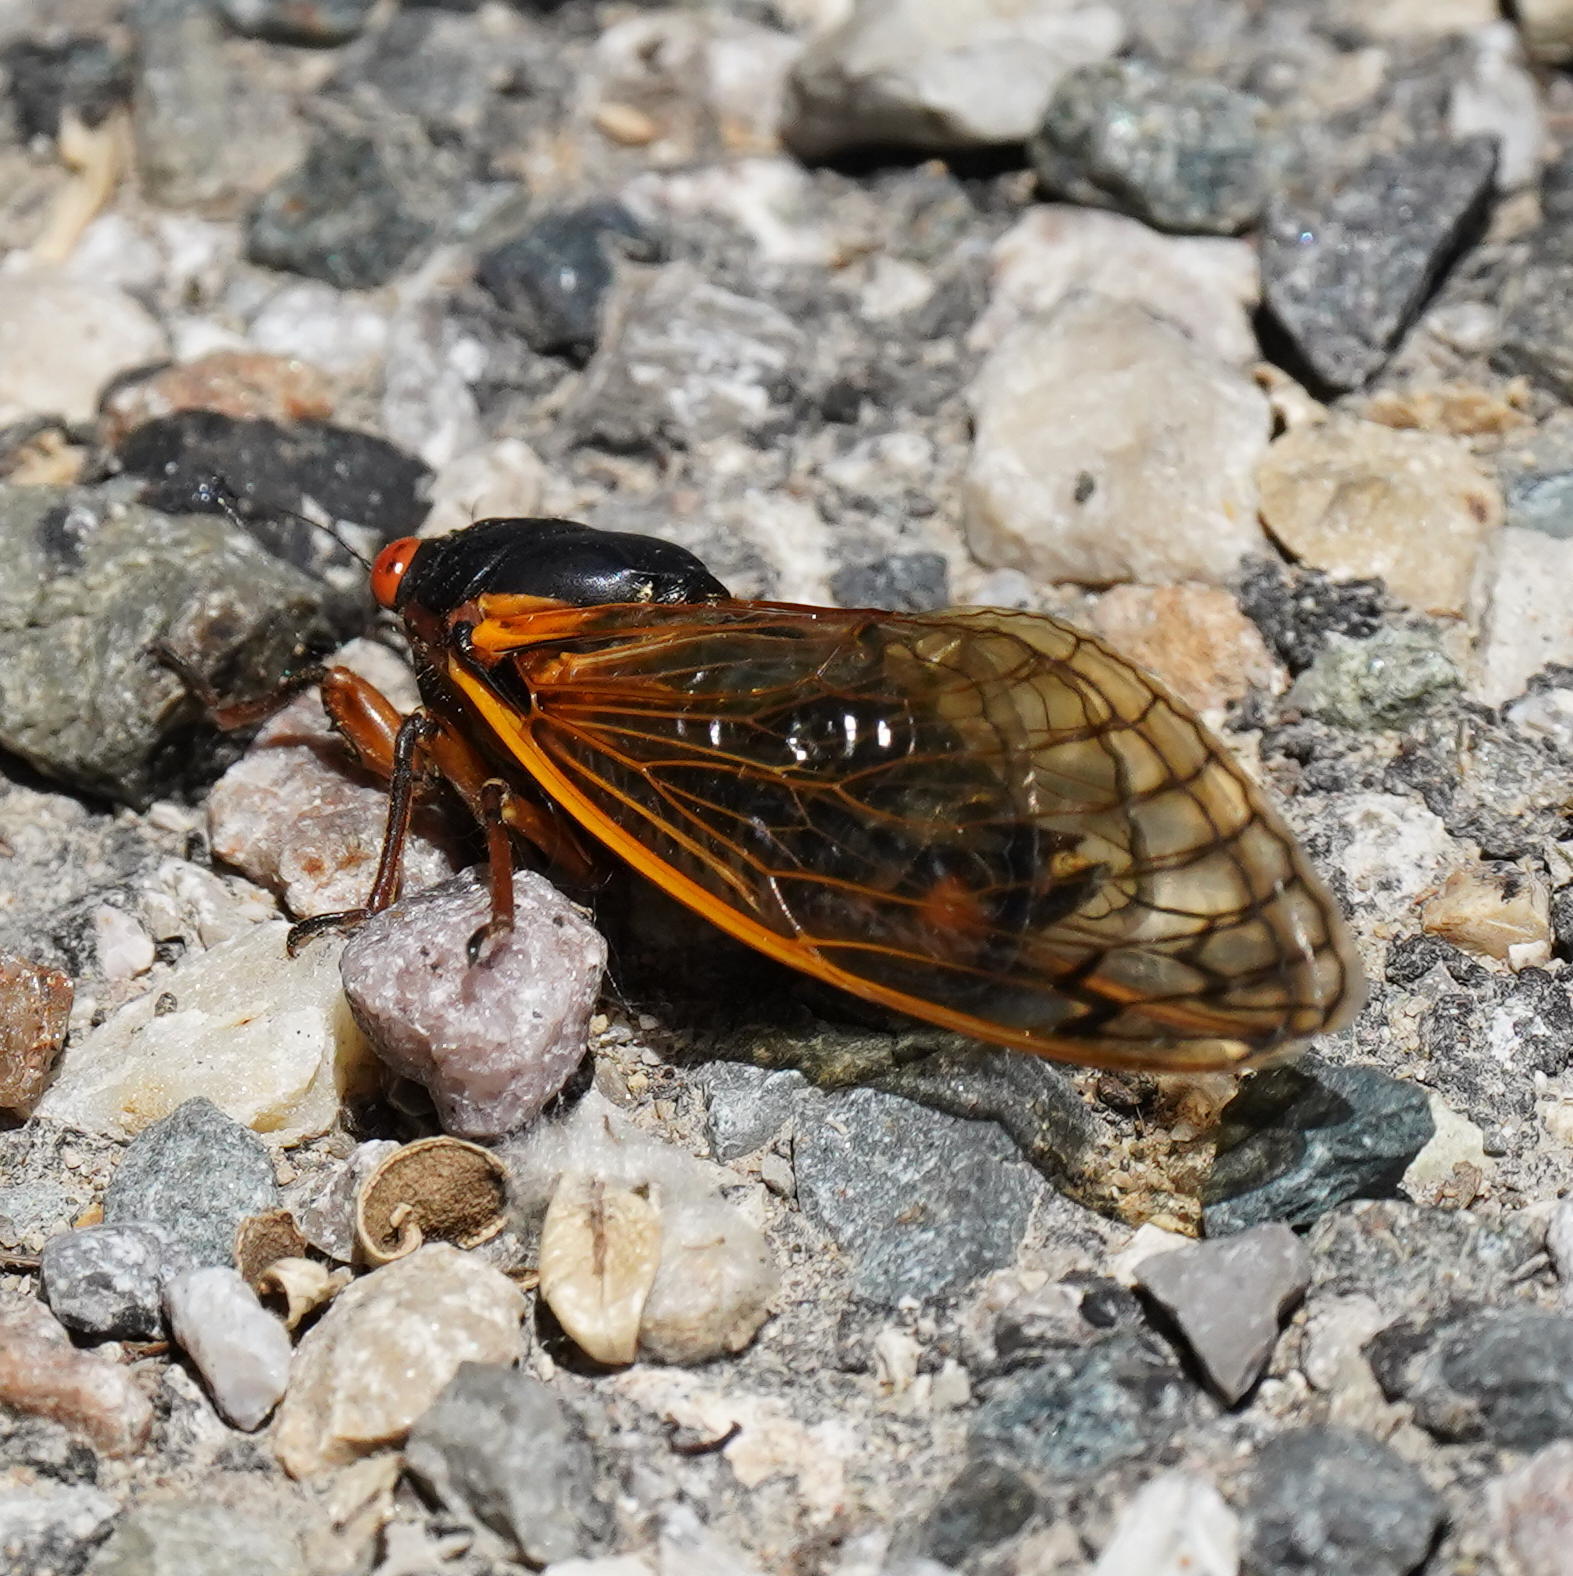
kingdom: Animalia
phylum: Arthropoda
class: Insecta
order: Hemiptera
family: Cicadidae
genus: Magicicada
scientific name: Magicicada septendecim
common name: Periodical cicada
